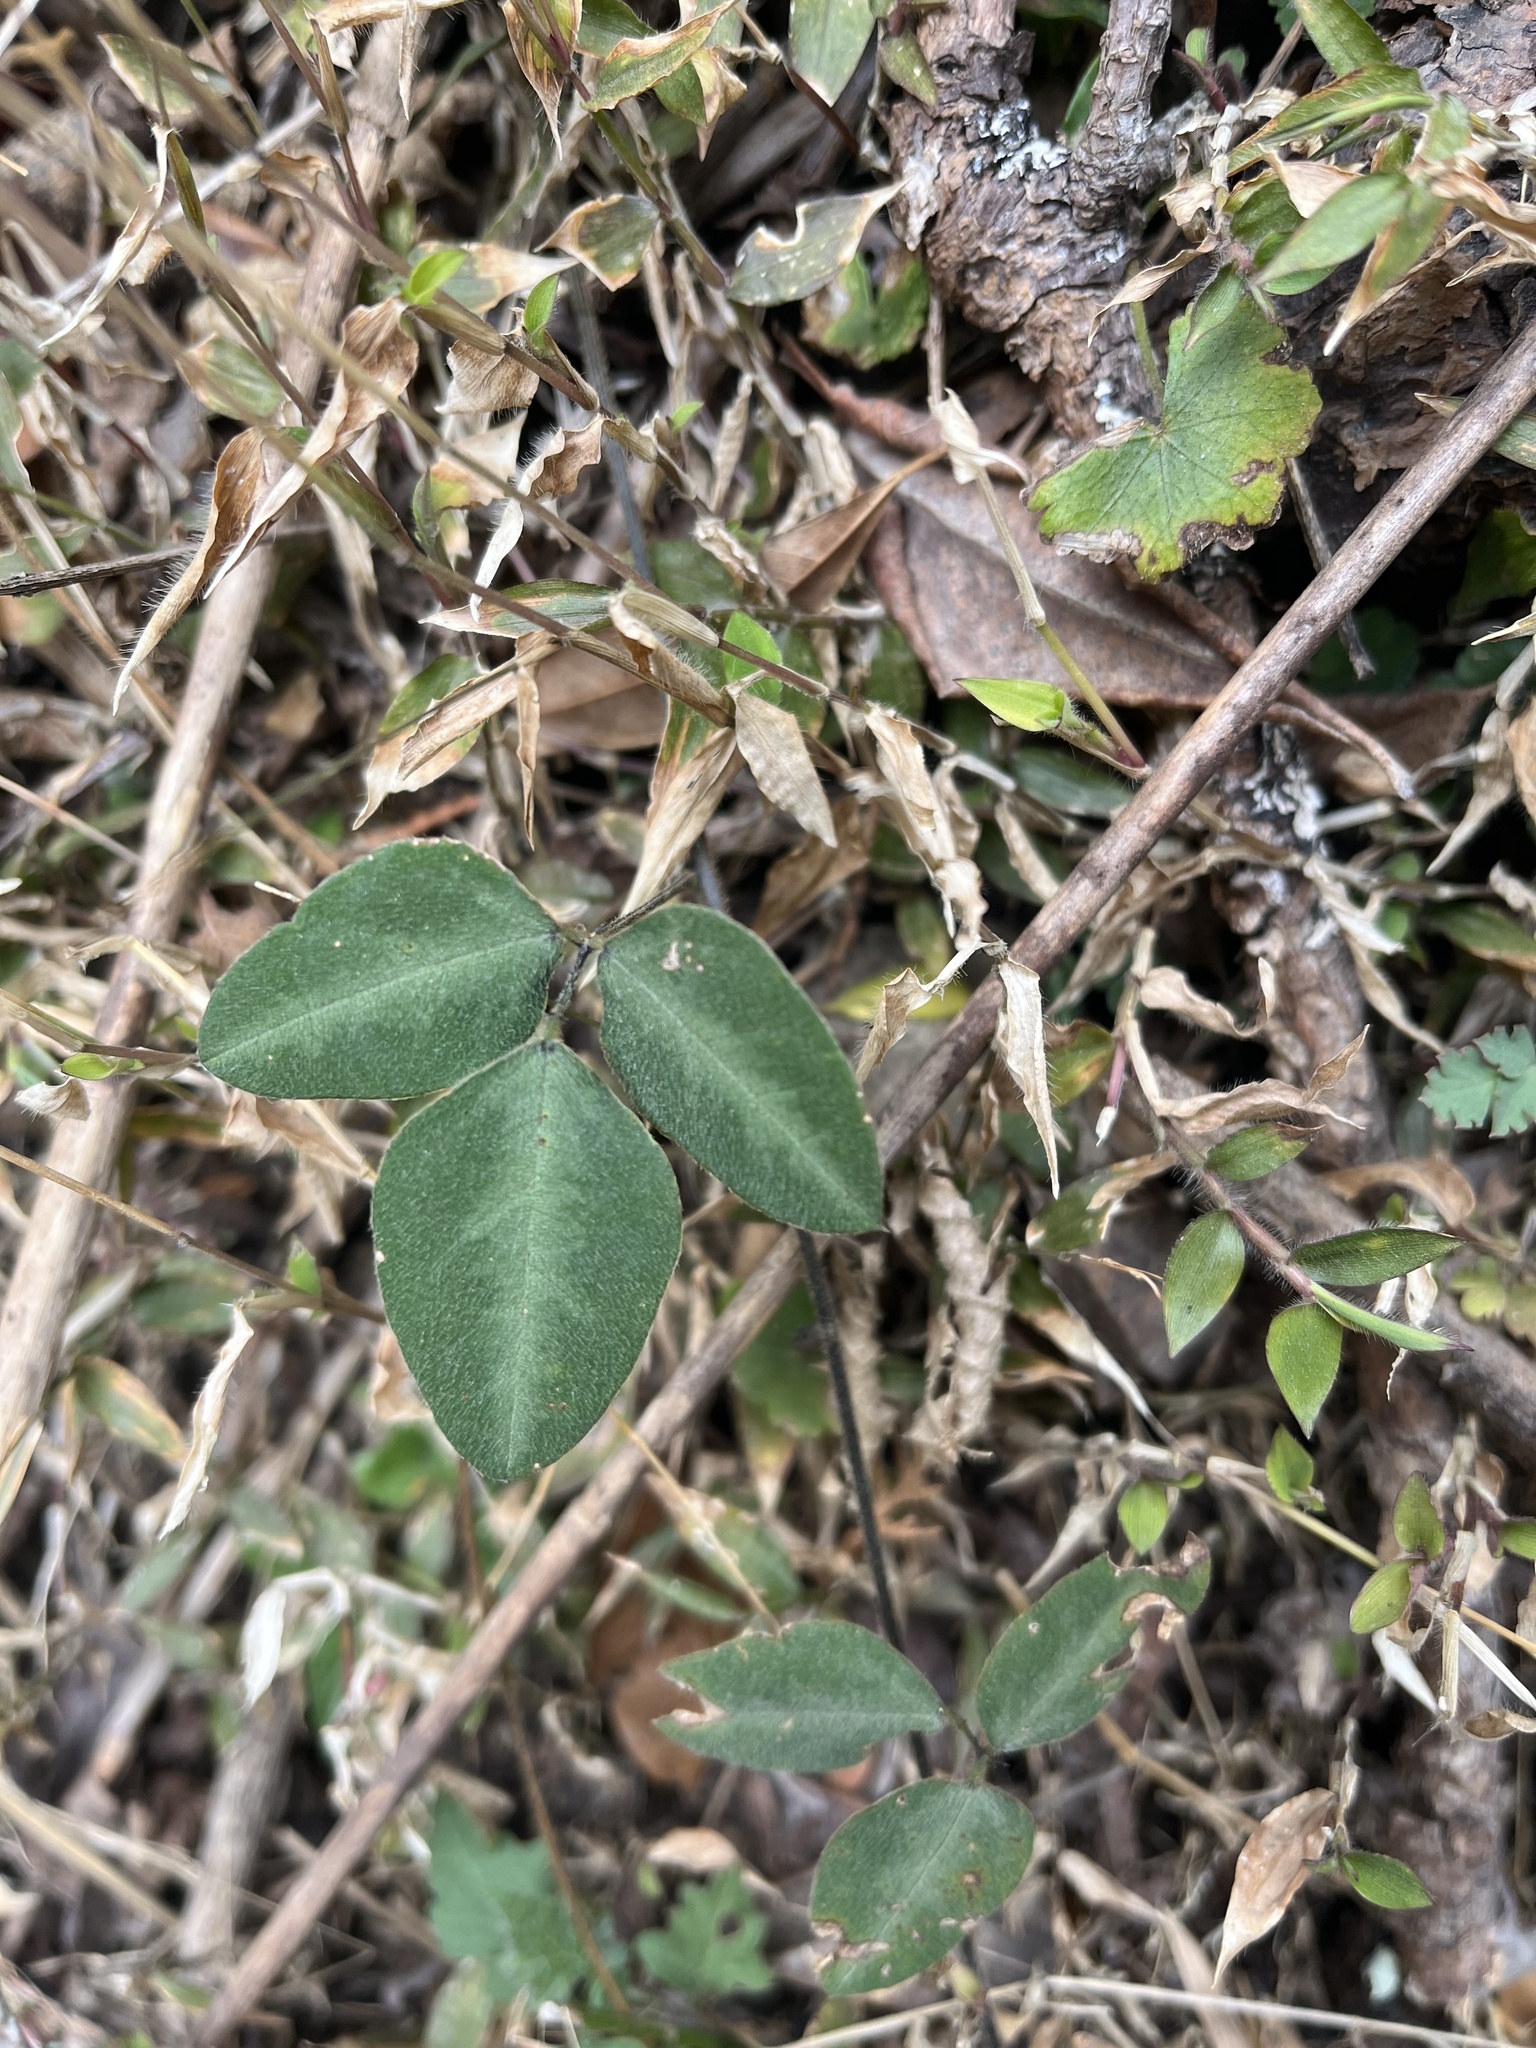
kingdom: Plantae
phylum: Tracheophyta
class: Magnoliopsida
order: Fabales
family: Fabaceae
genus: Dumasia
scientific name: Dumasia villosa
